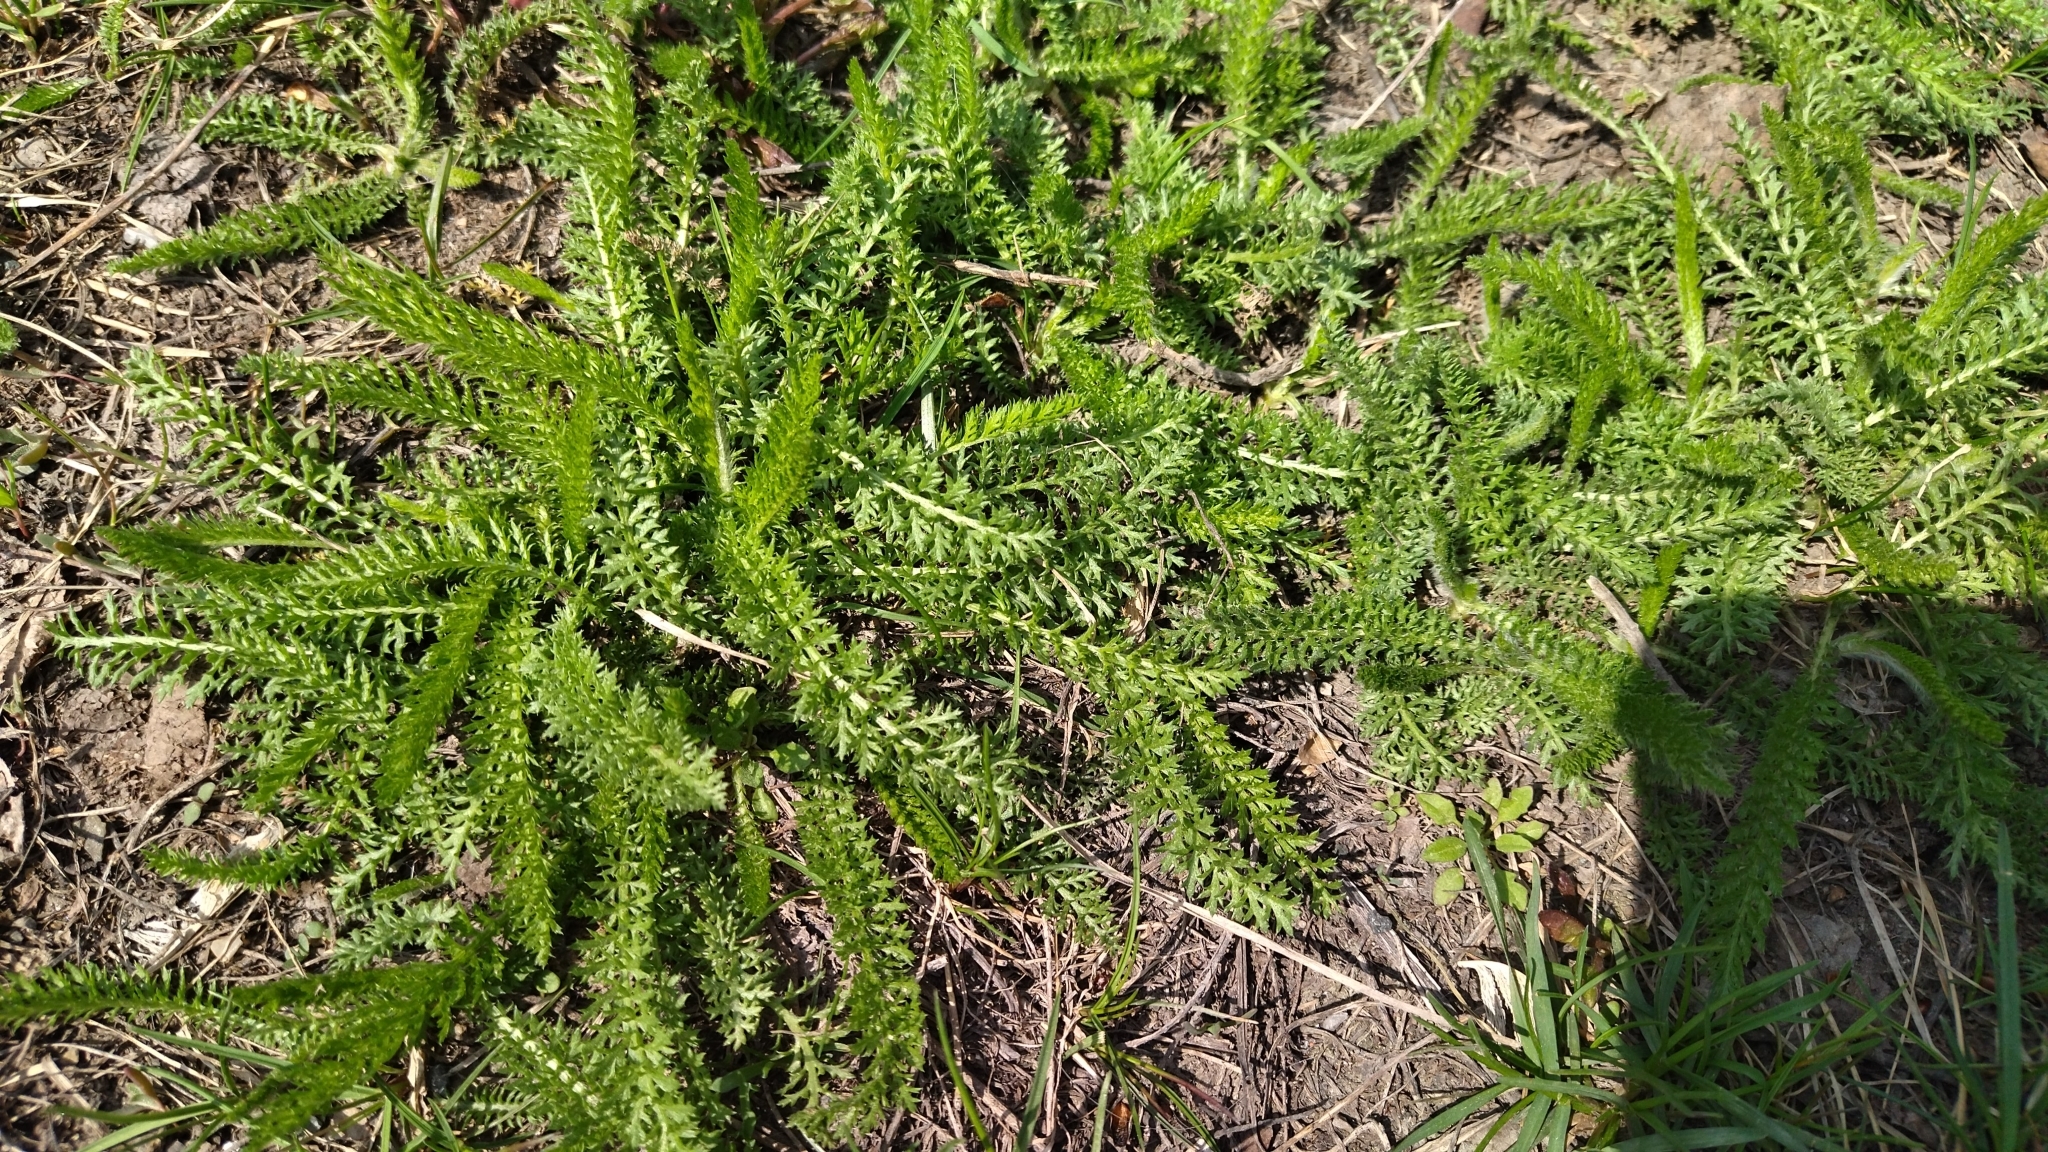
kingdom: Plantae
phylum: Tracheophyta
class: Magnoliopsida
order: Asterales
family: Asteraceae
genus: Achillea
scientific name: Achillea millefolium
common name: Yarrow
